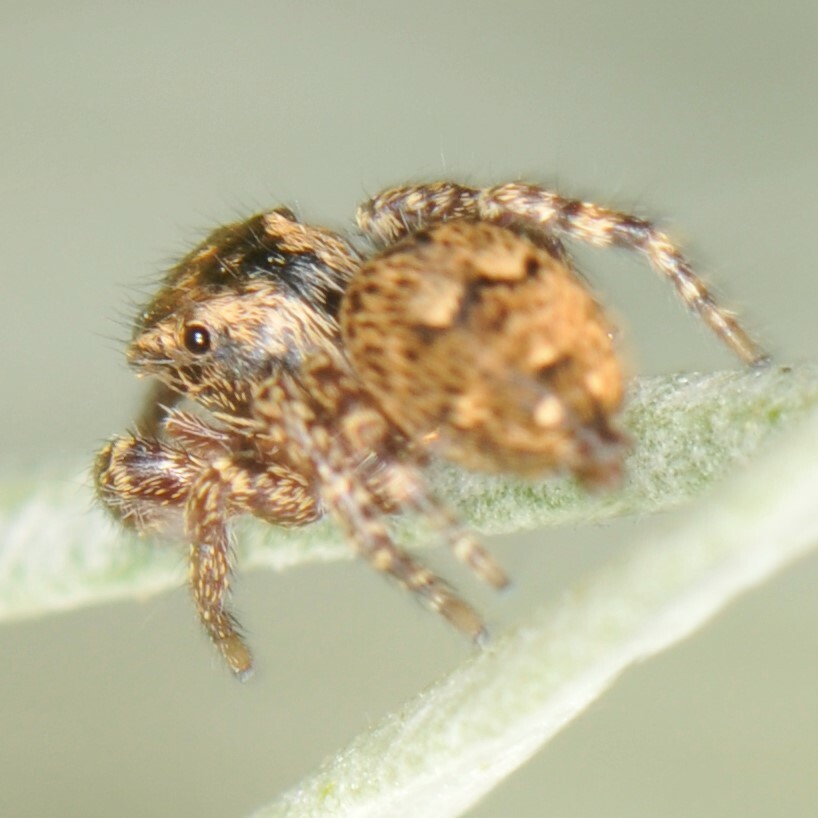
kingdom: Animalia
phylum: Arthropoda
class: Arachnida
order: Araneae
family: Salticidae
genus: Habronattus
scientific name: Habronattus geronimoi
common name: Jumping spiders
